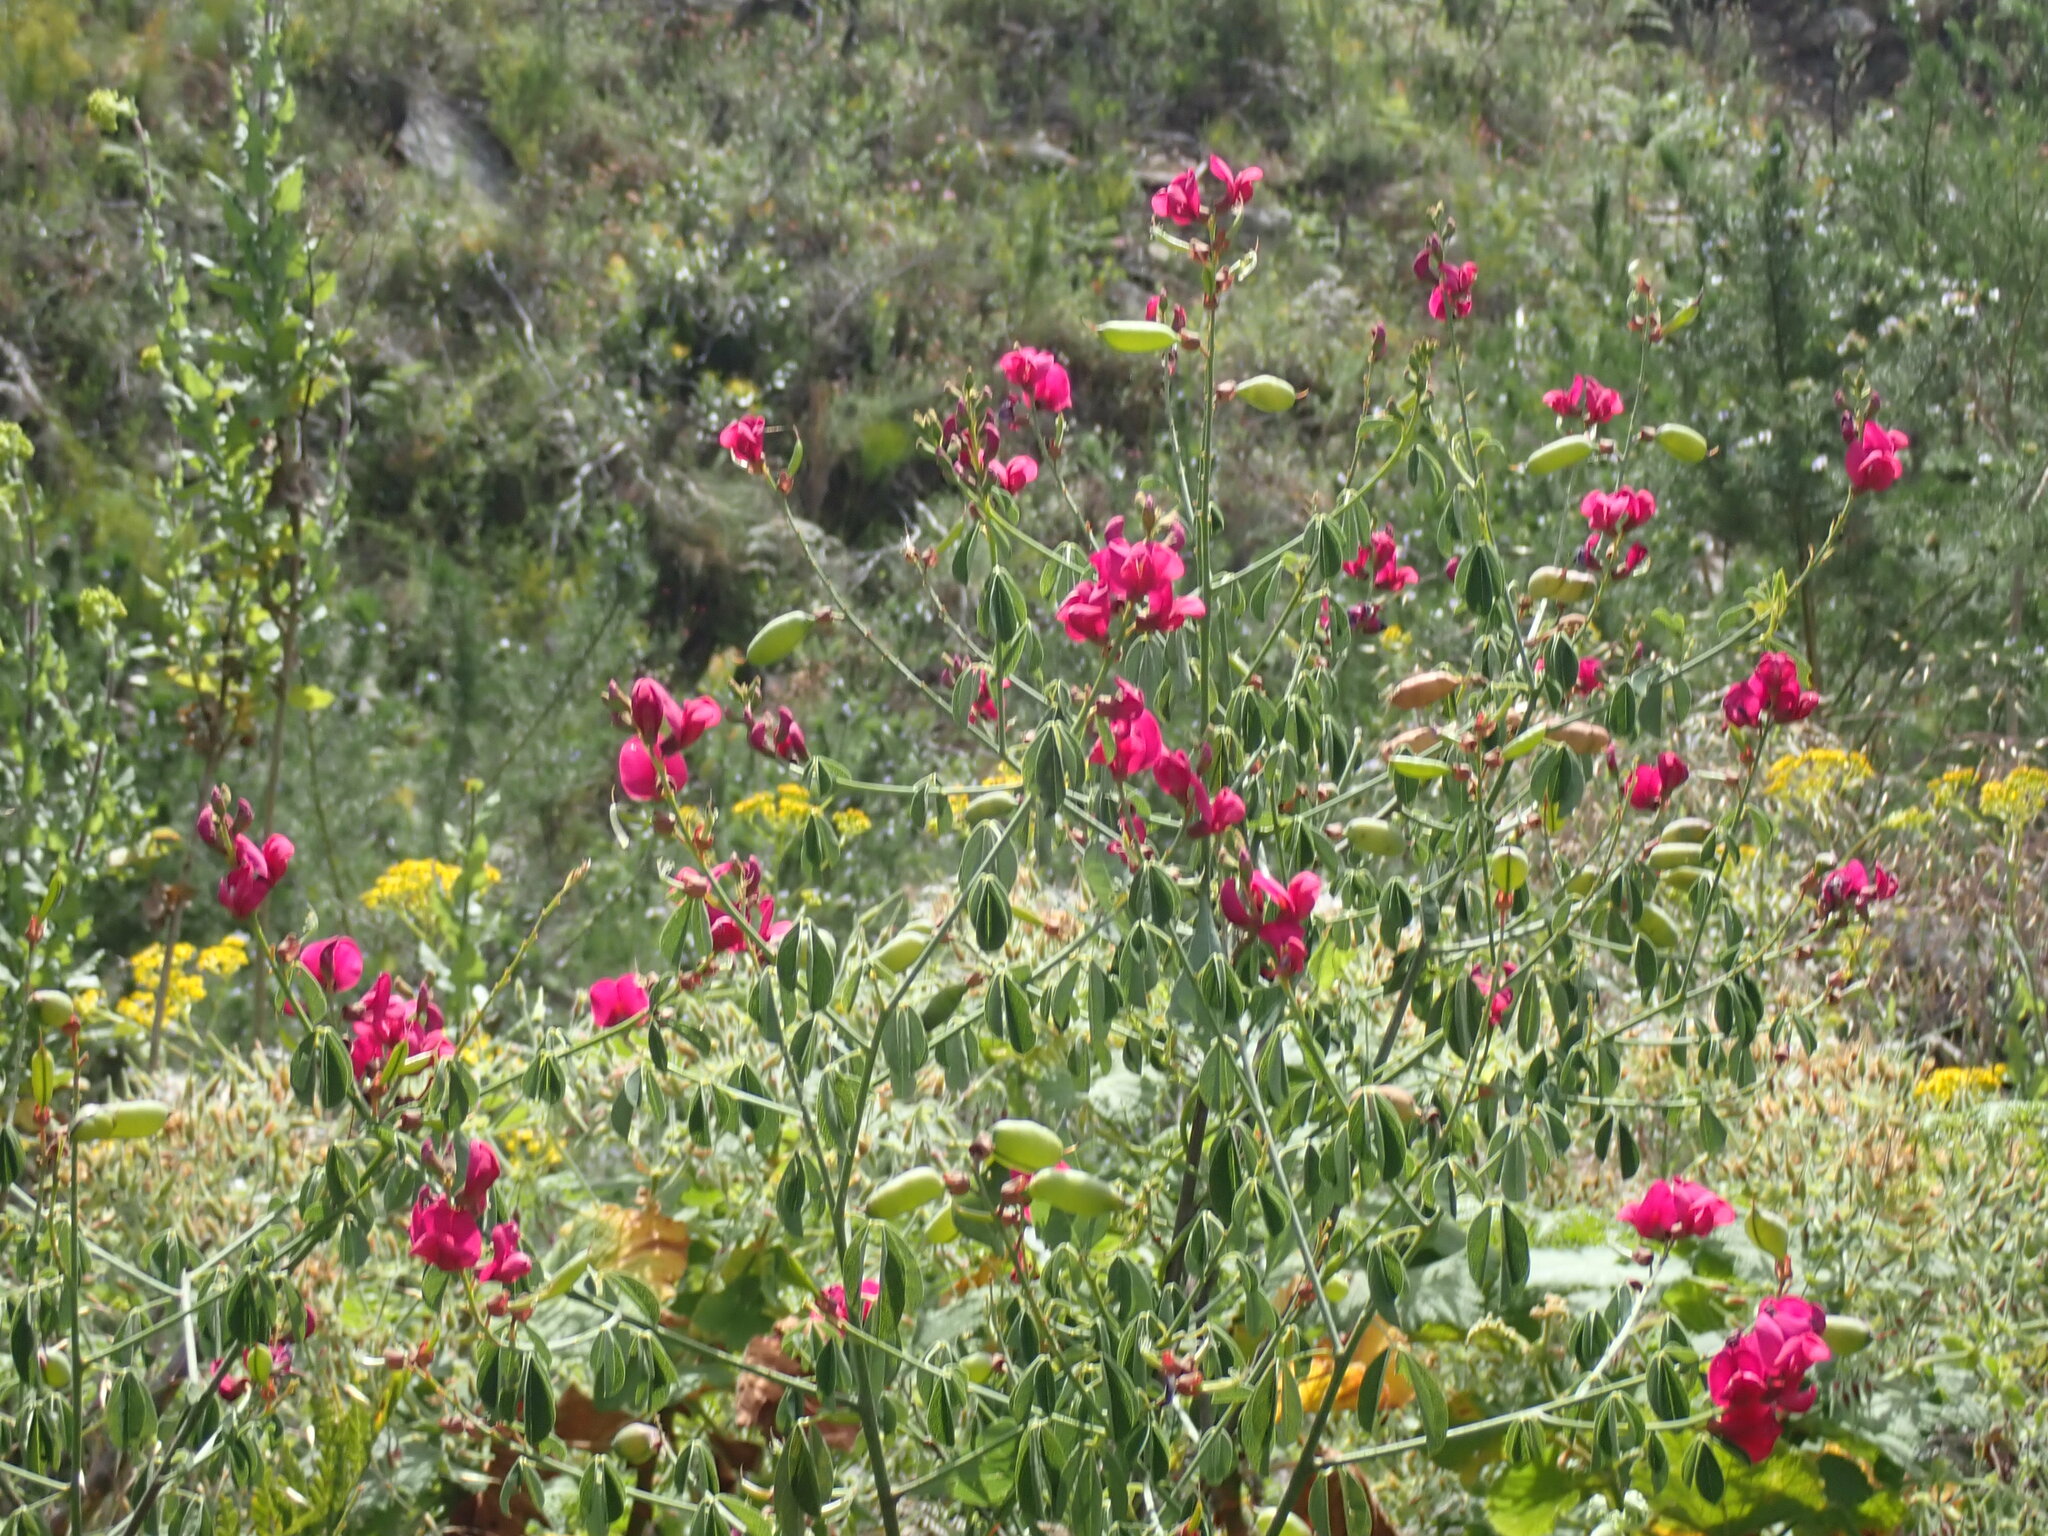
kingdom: Plantae
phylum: Tracheophyta
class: Magnoliopsida
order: Fabales
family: Fabaceae
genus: Hypocalyptus
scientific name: Hypocalyptus sophoroides
